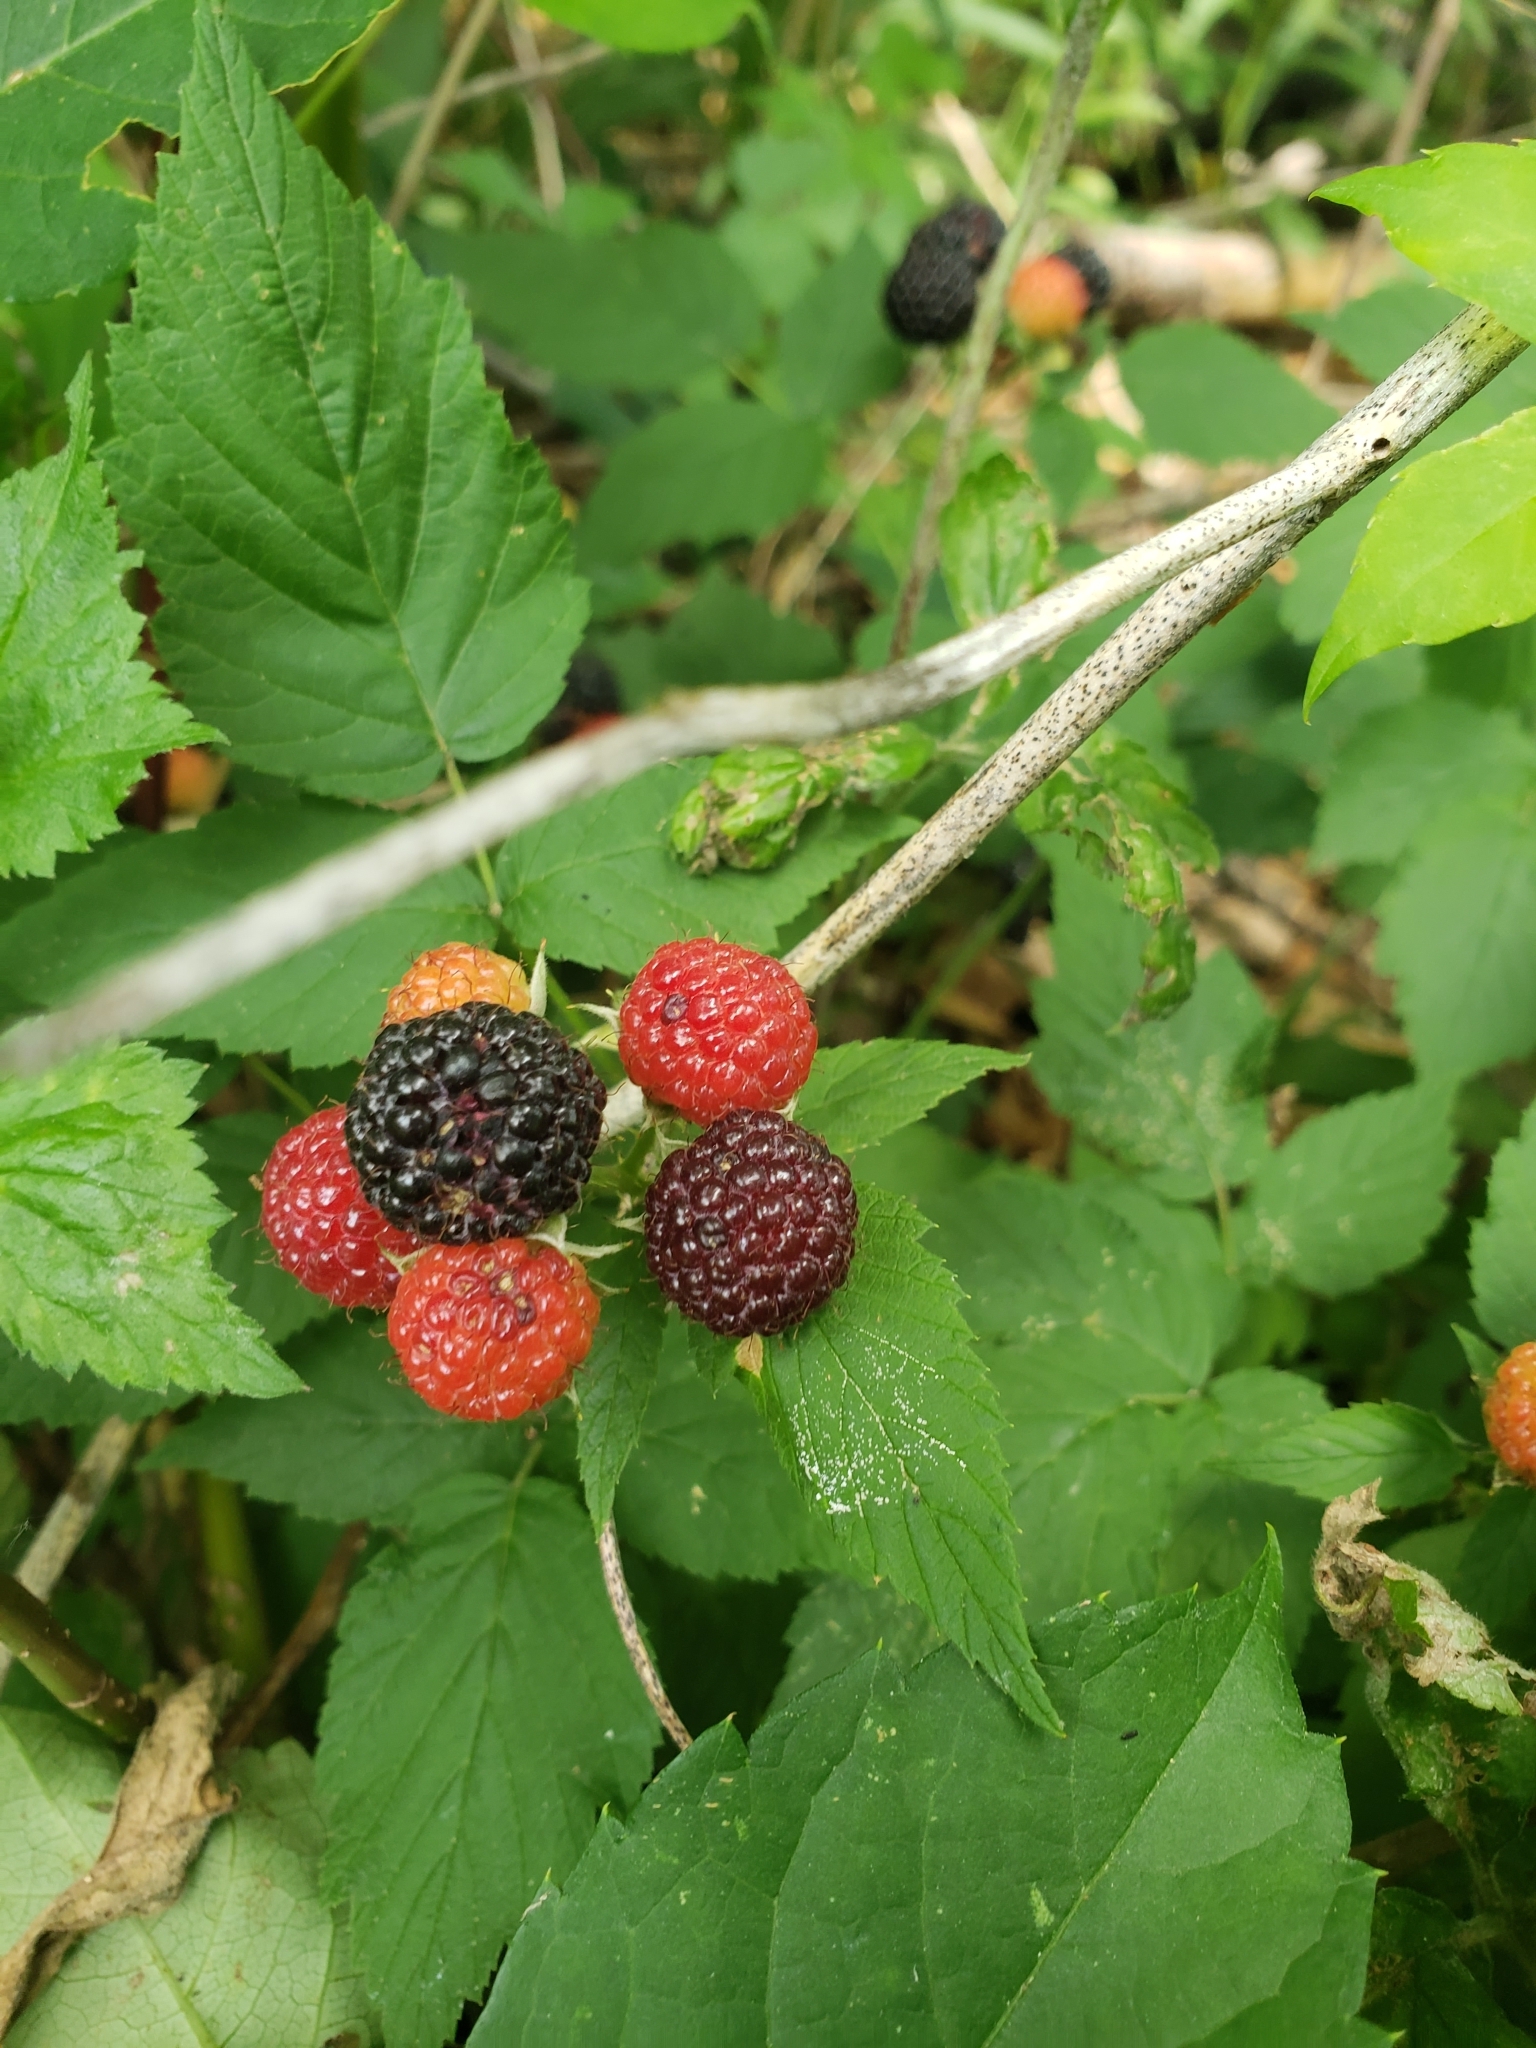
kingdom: Plantae
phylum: Tracheophyta
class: Magnoliopsida
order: Rosales
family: Rosaceae
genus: Rubus
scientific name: Rubus occidentalis
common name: Black raspberry
